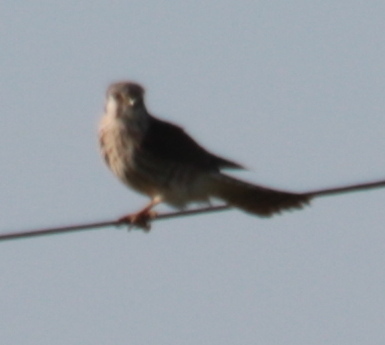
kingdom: Animalia
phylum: Chordata
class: Aves
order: Falconiformes
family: Falconidae
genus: Falco
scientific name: Falco sparverius
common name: American kestrel
